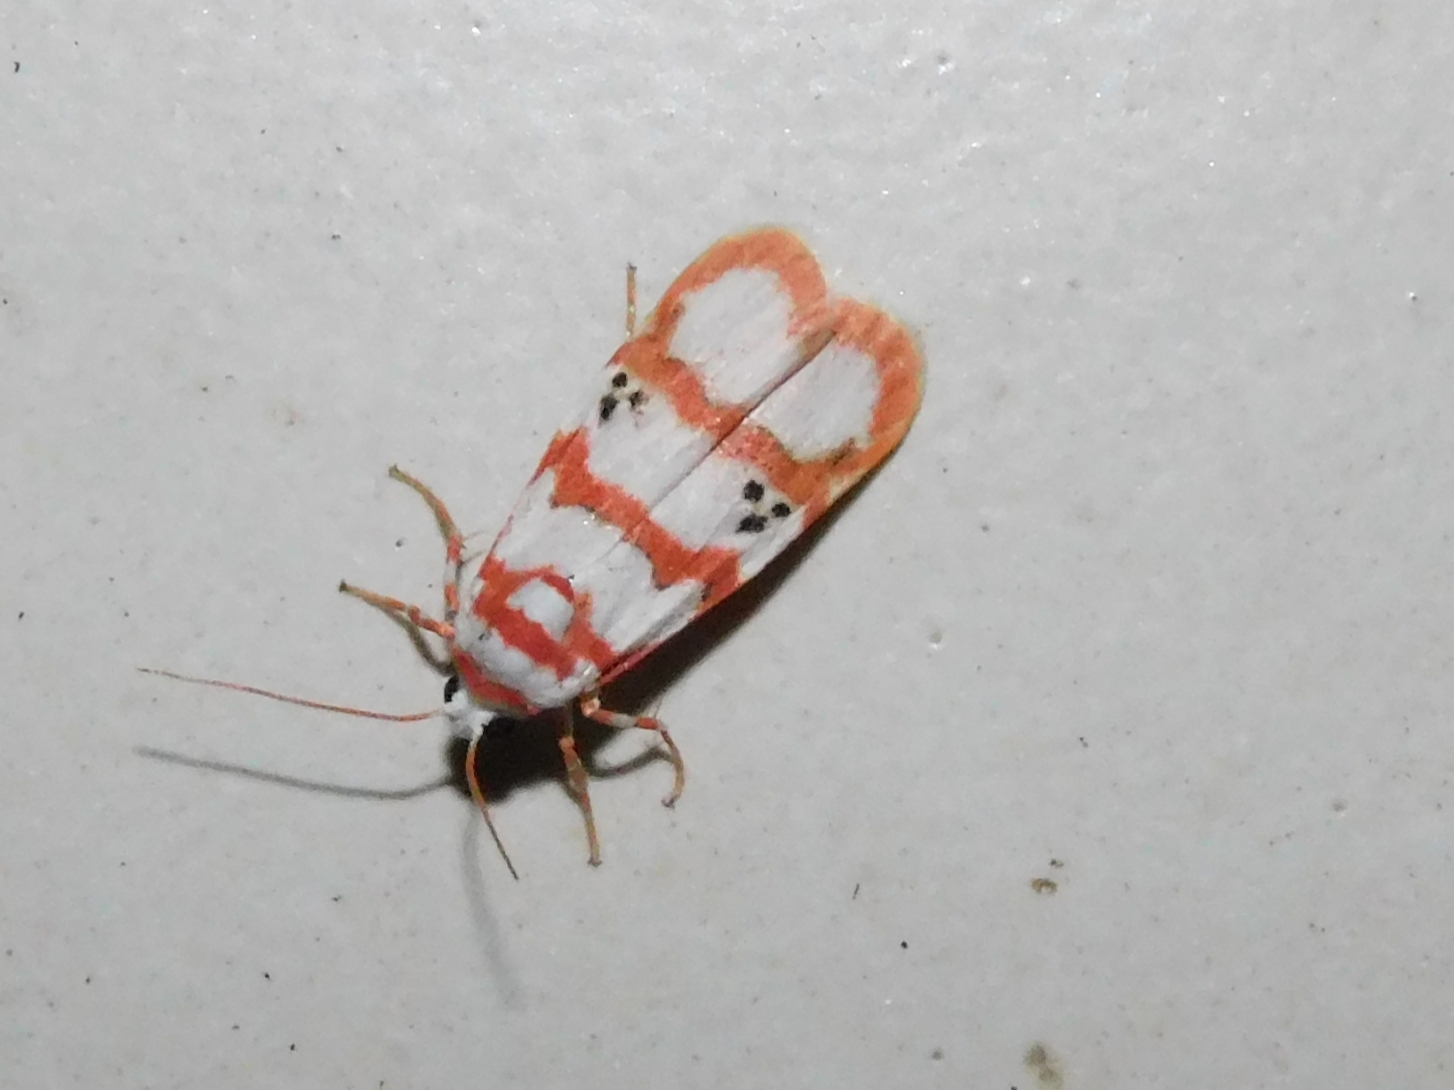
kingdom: Animalia
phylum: Arthropoda
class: Insecta
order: Lepidoptera
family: Erebidae
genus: Cyana
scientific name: Cyana puella
